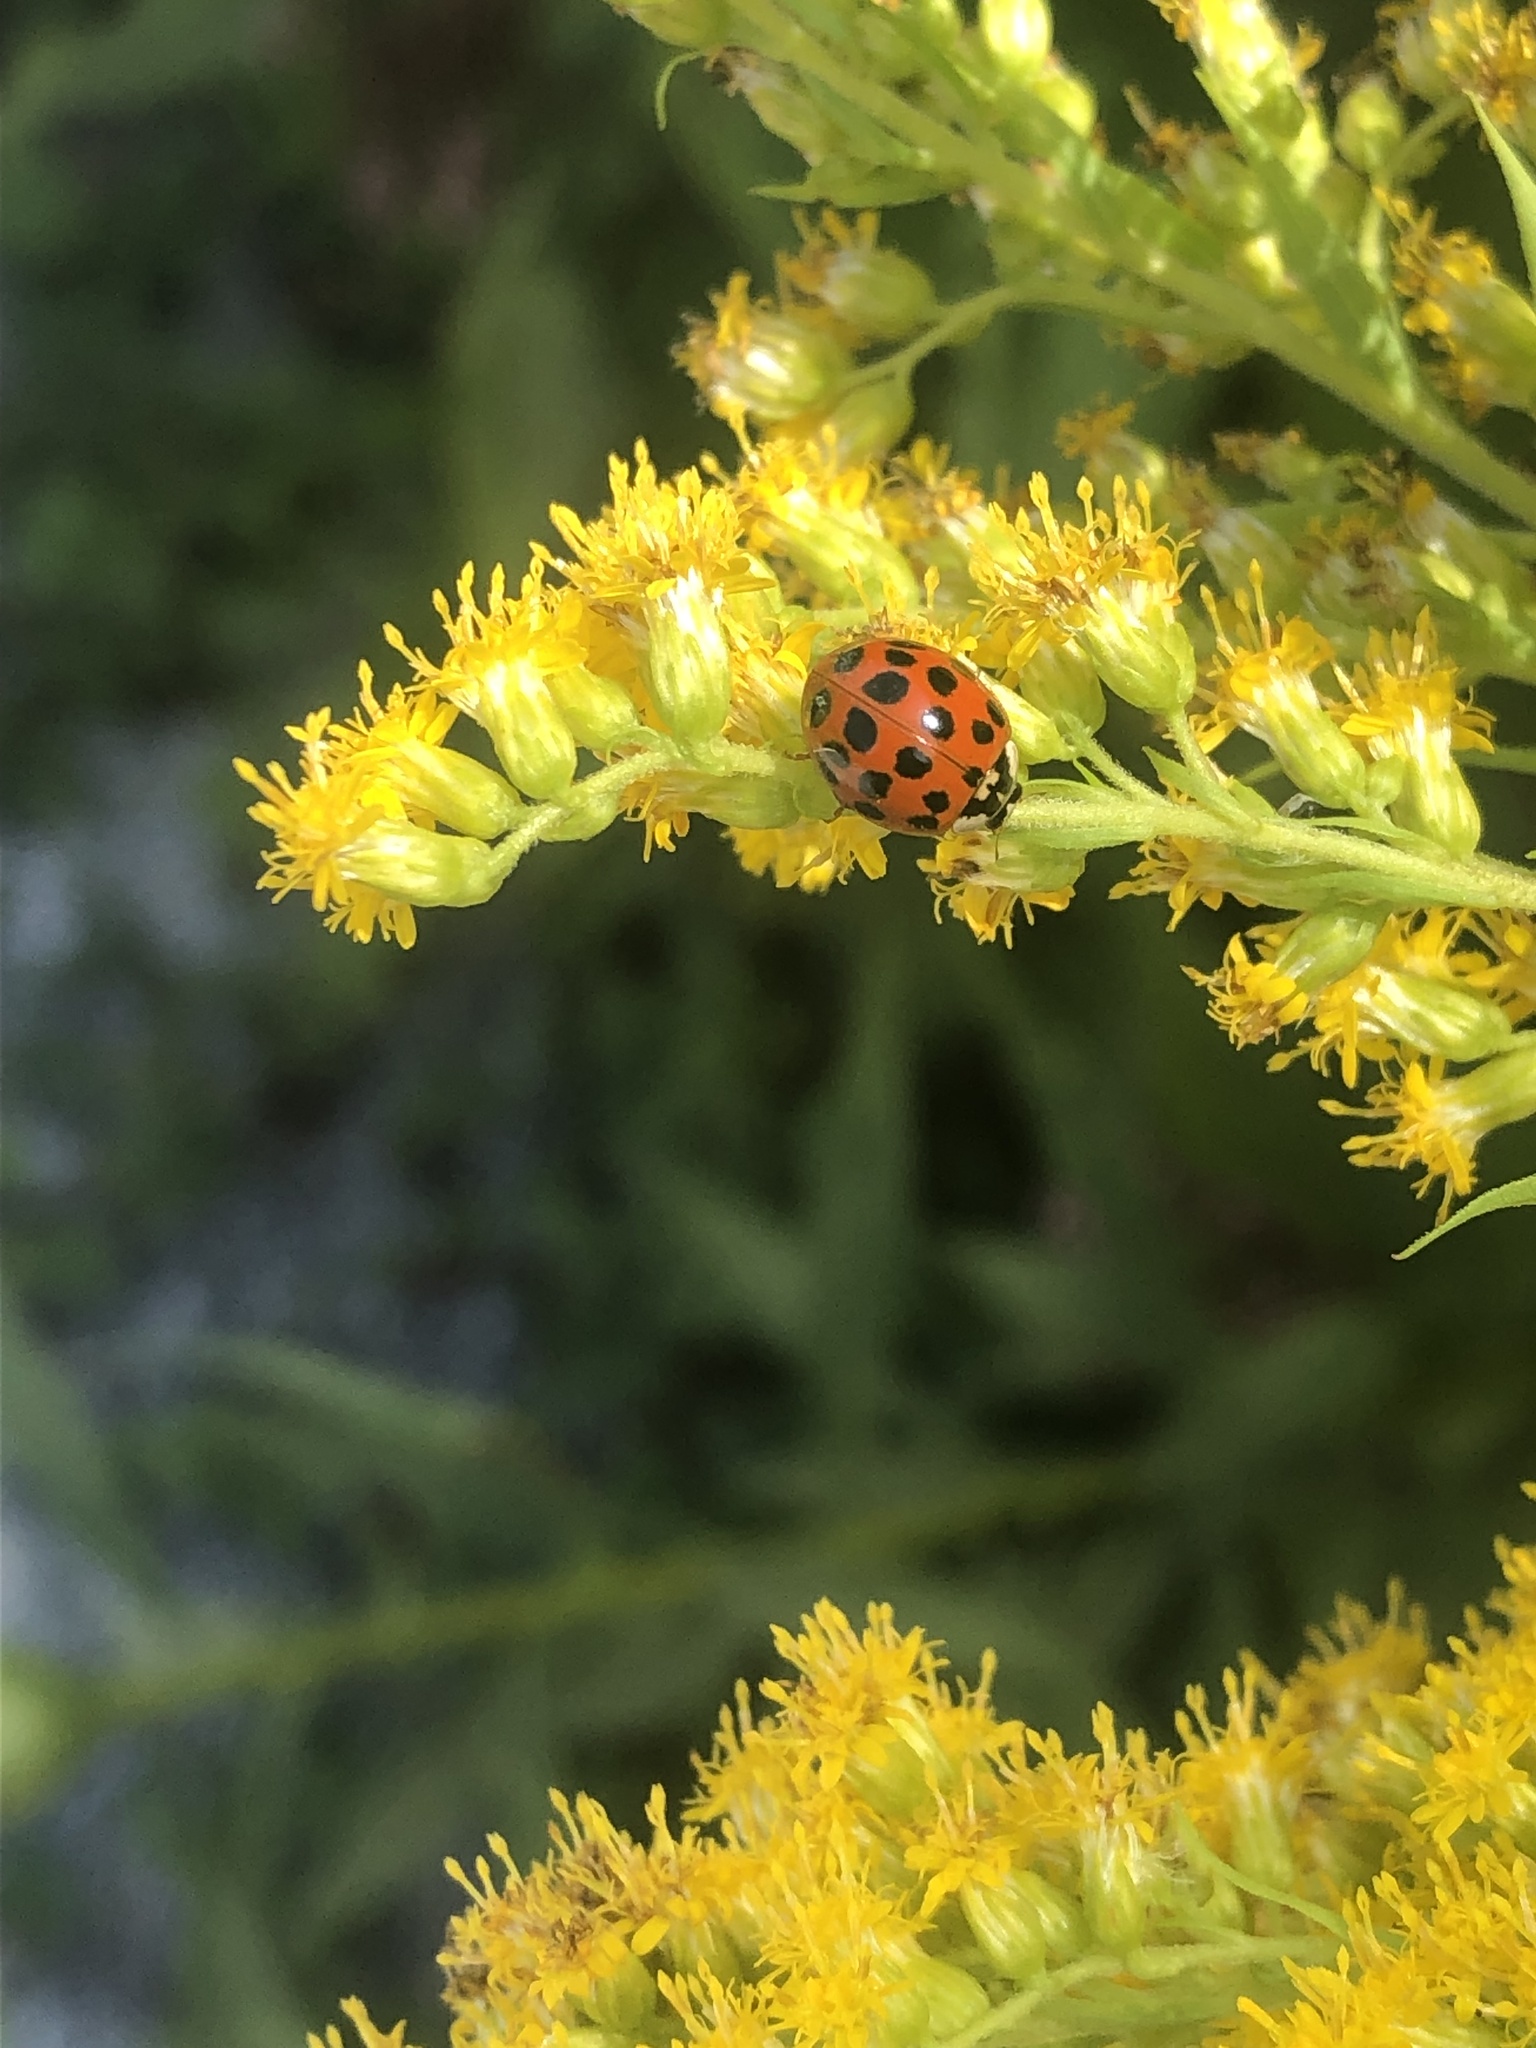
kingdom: Animalia
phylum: Arthropoda
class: Insecta
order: Coleoptera
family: Coccinellidae
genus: Harmonia
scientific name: Harmonia axyridis
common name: Harlequin ladybird
